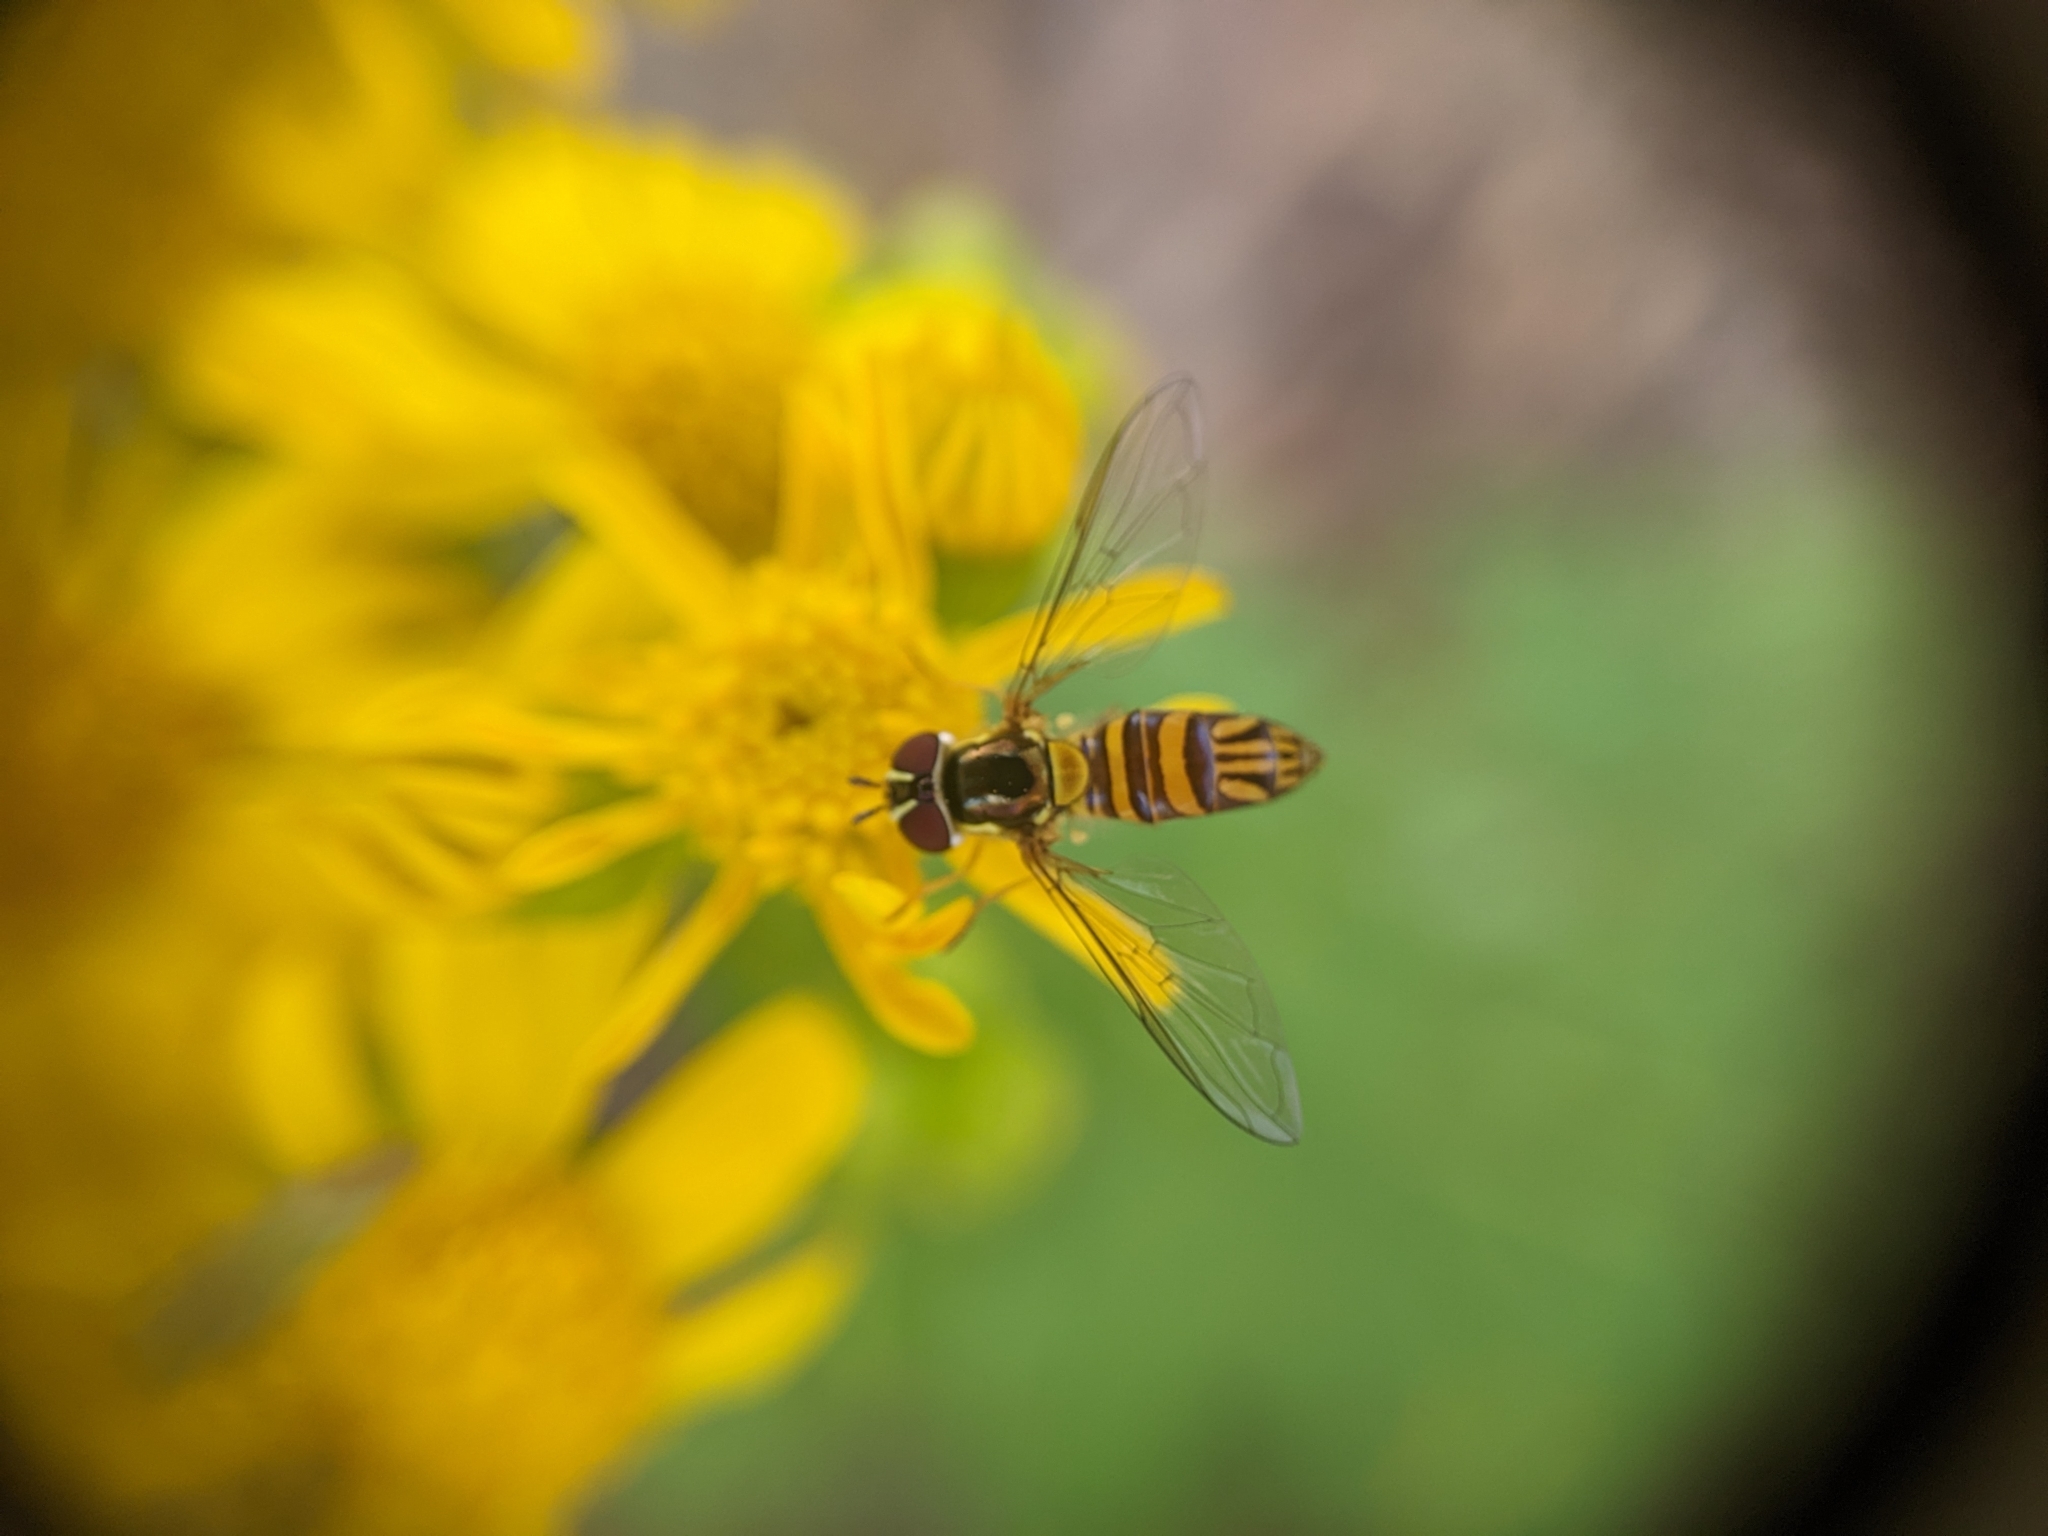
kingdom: Animalia
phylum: Arthropoda
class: Insecta
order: Diptera
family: Syrphidae
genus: Allograpta
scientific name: Allograpta obliqua
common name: Common oblique syrphid
